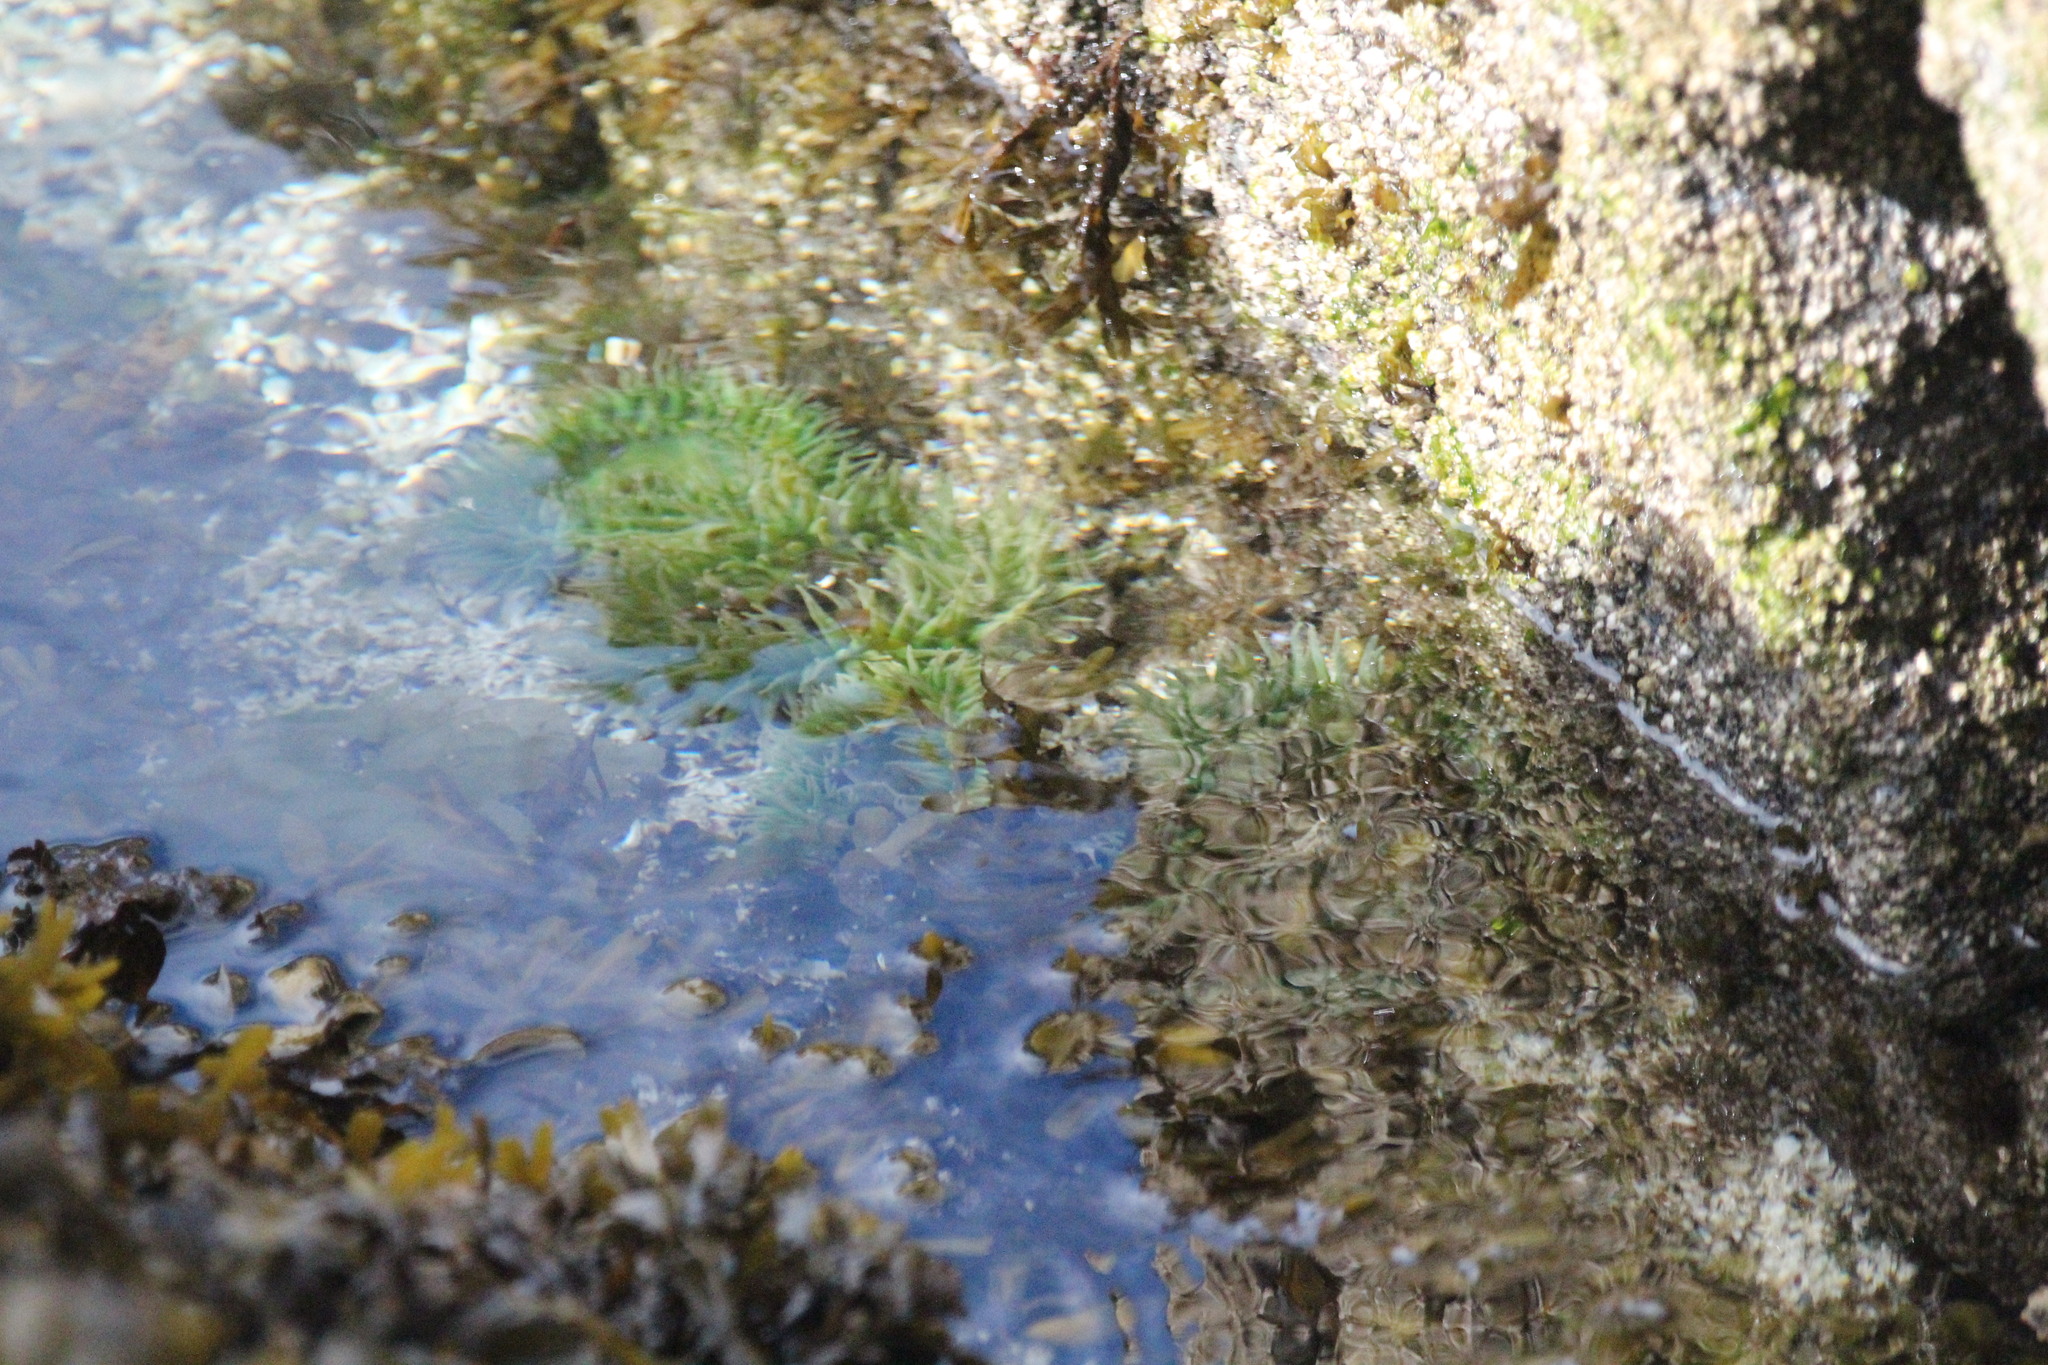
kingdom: Animalia
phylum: Cnidaria
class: Anthozoa
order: Actiniaria
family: Actiniidae
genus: Anthopleura
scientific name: Anthopleura xanthogrammica
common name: Giant green anemone
